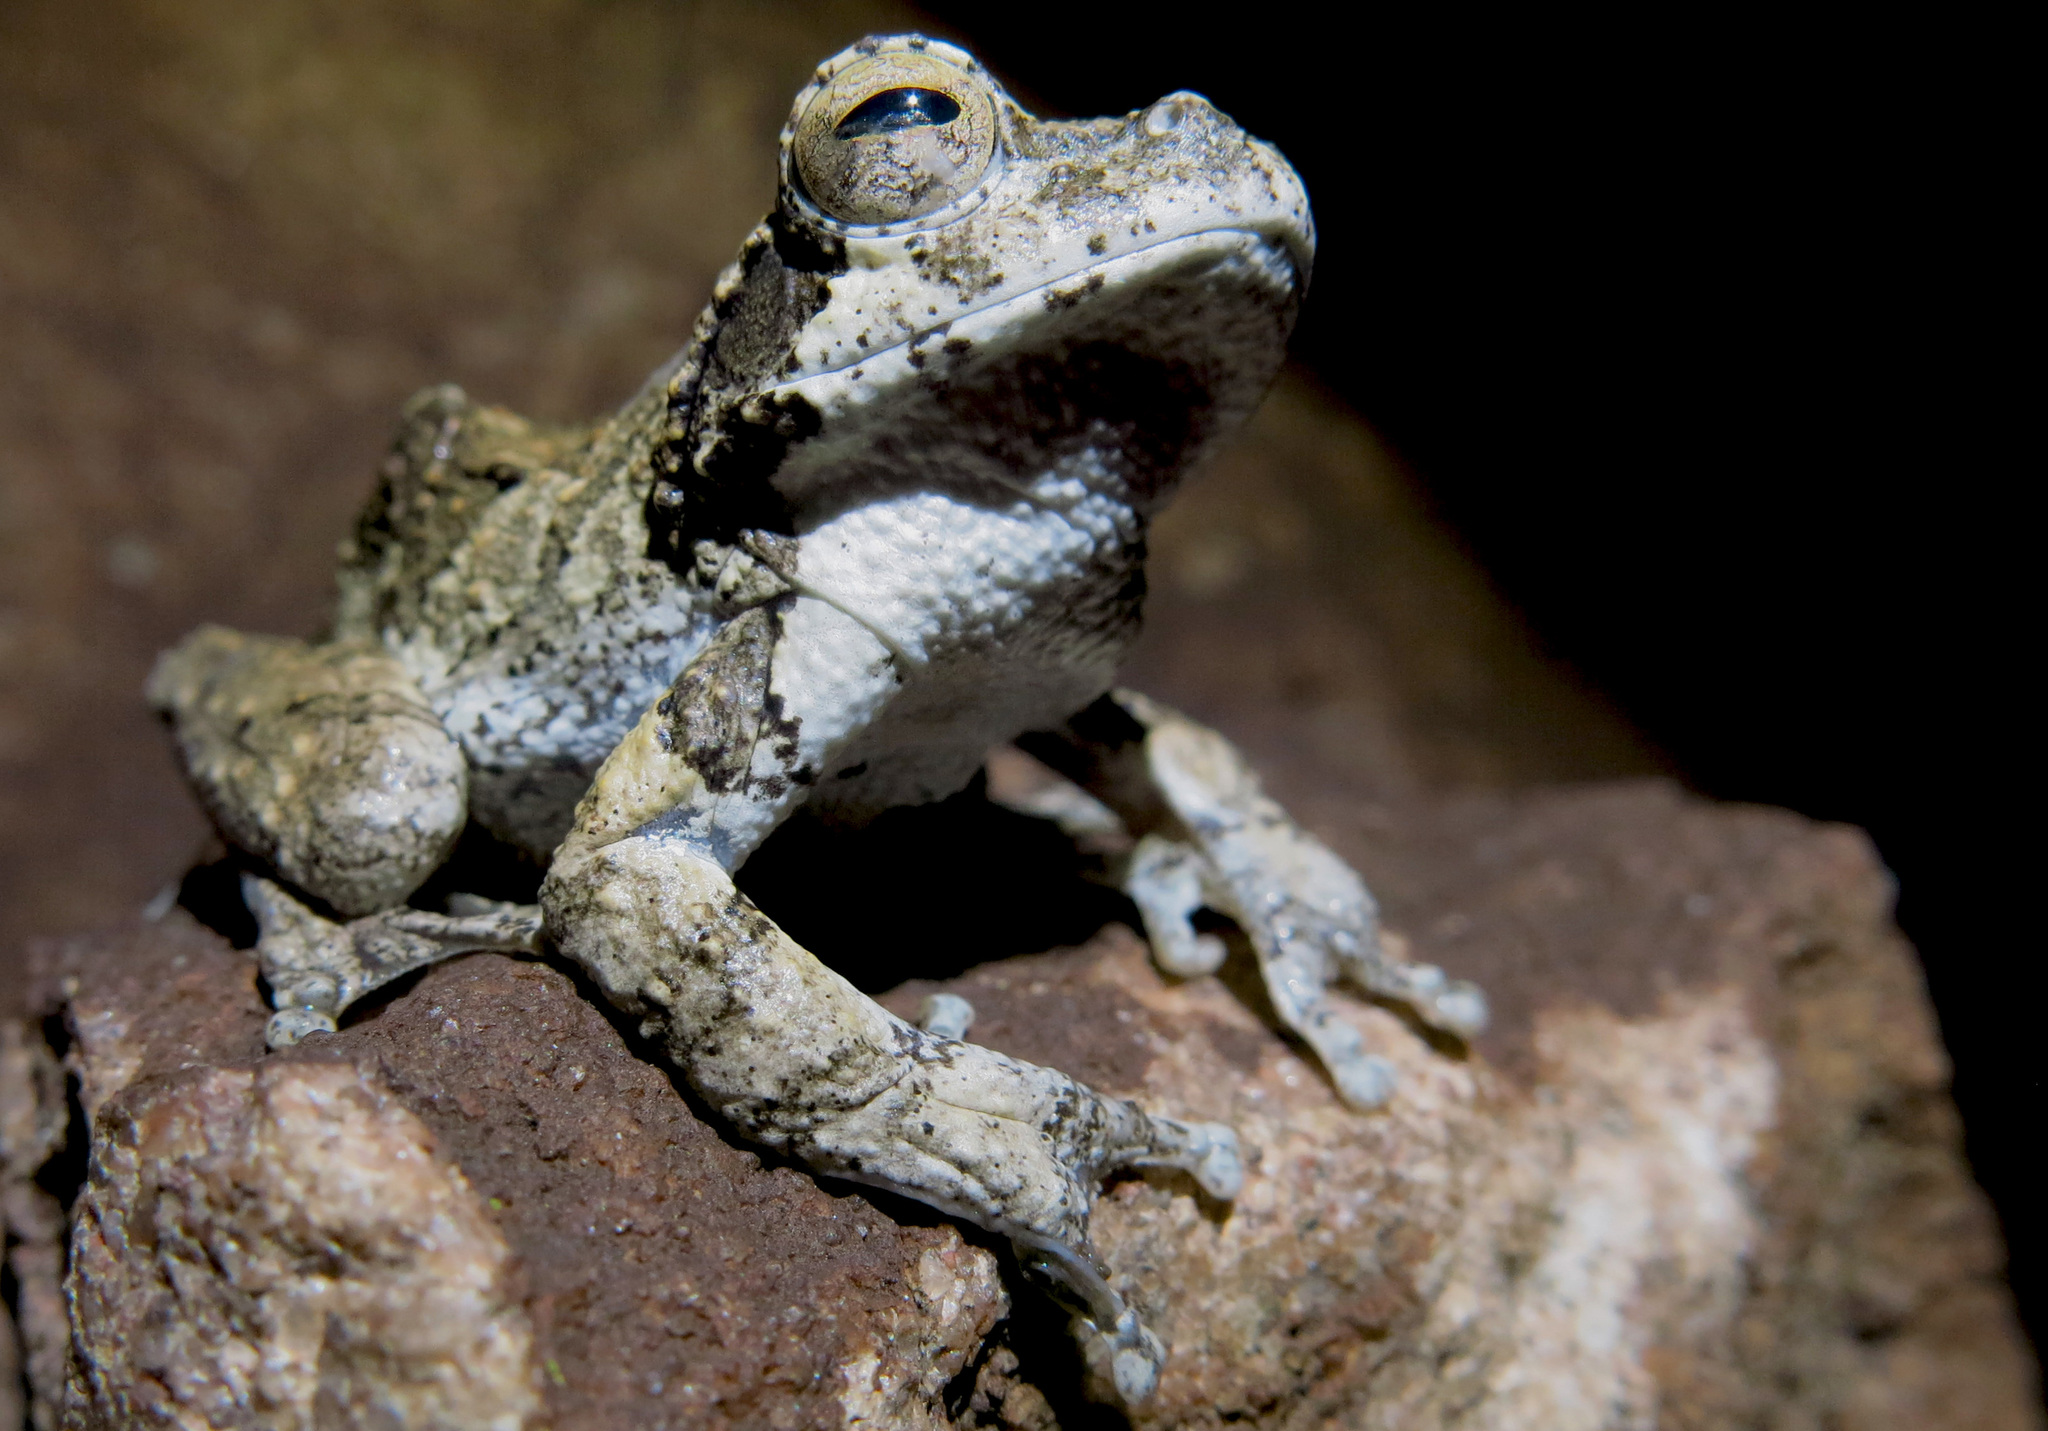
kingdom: Animalia
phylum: Chordata
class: Amphibia
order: Anura
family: Rhacophoridae
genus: Chiromantis
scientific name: Chiromantis xerampelina
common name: African gray treefrog
